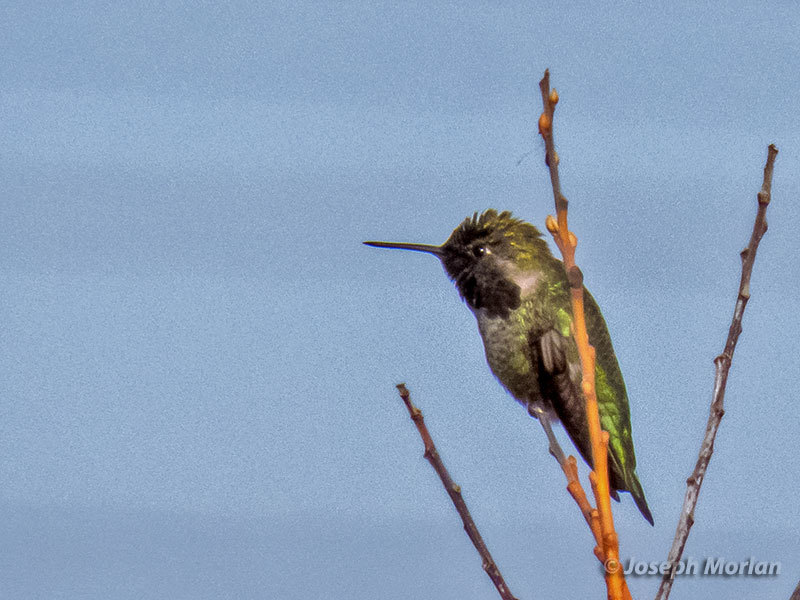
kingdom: Animalia
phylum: Chordata
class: Aves
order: Apodiformes
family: Trochilidae
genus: Calypte
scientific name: Calypte anna
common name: Anna's hummingbird
